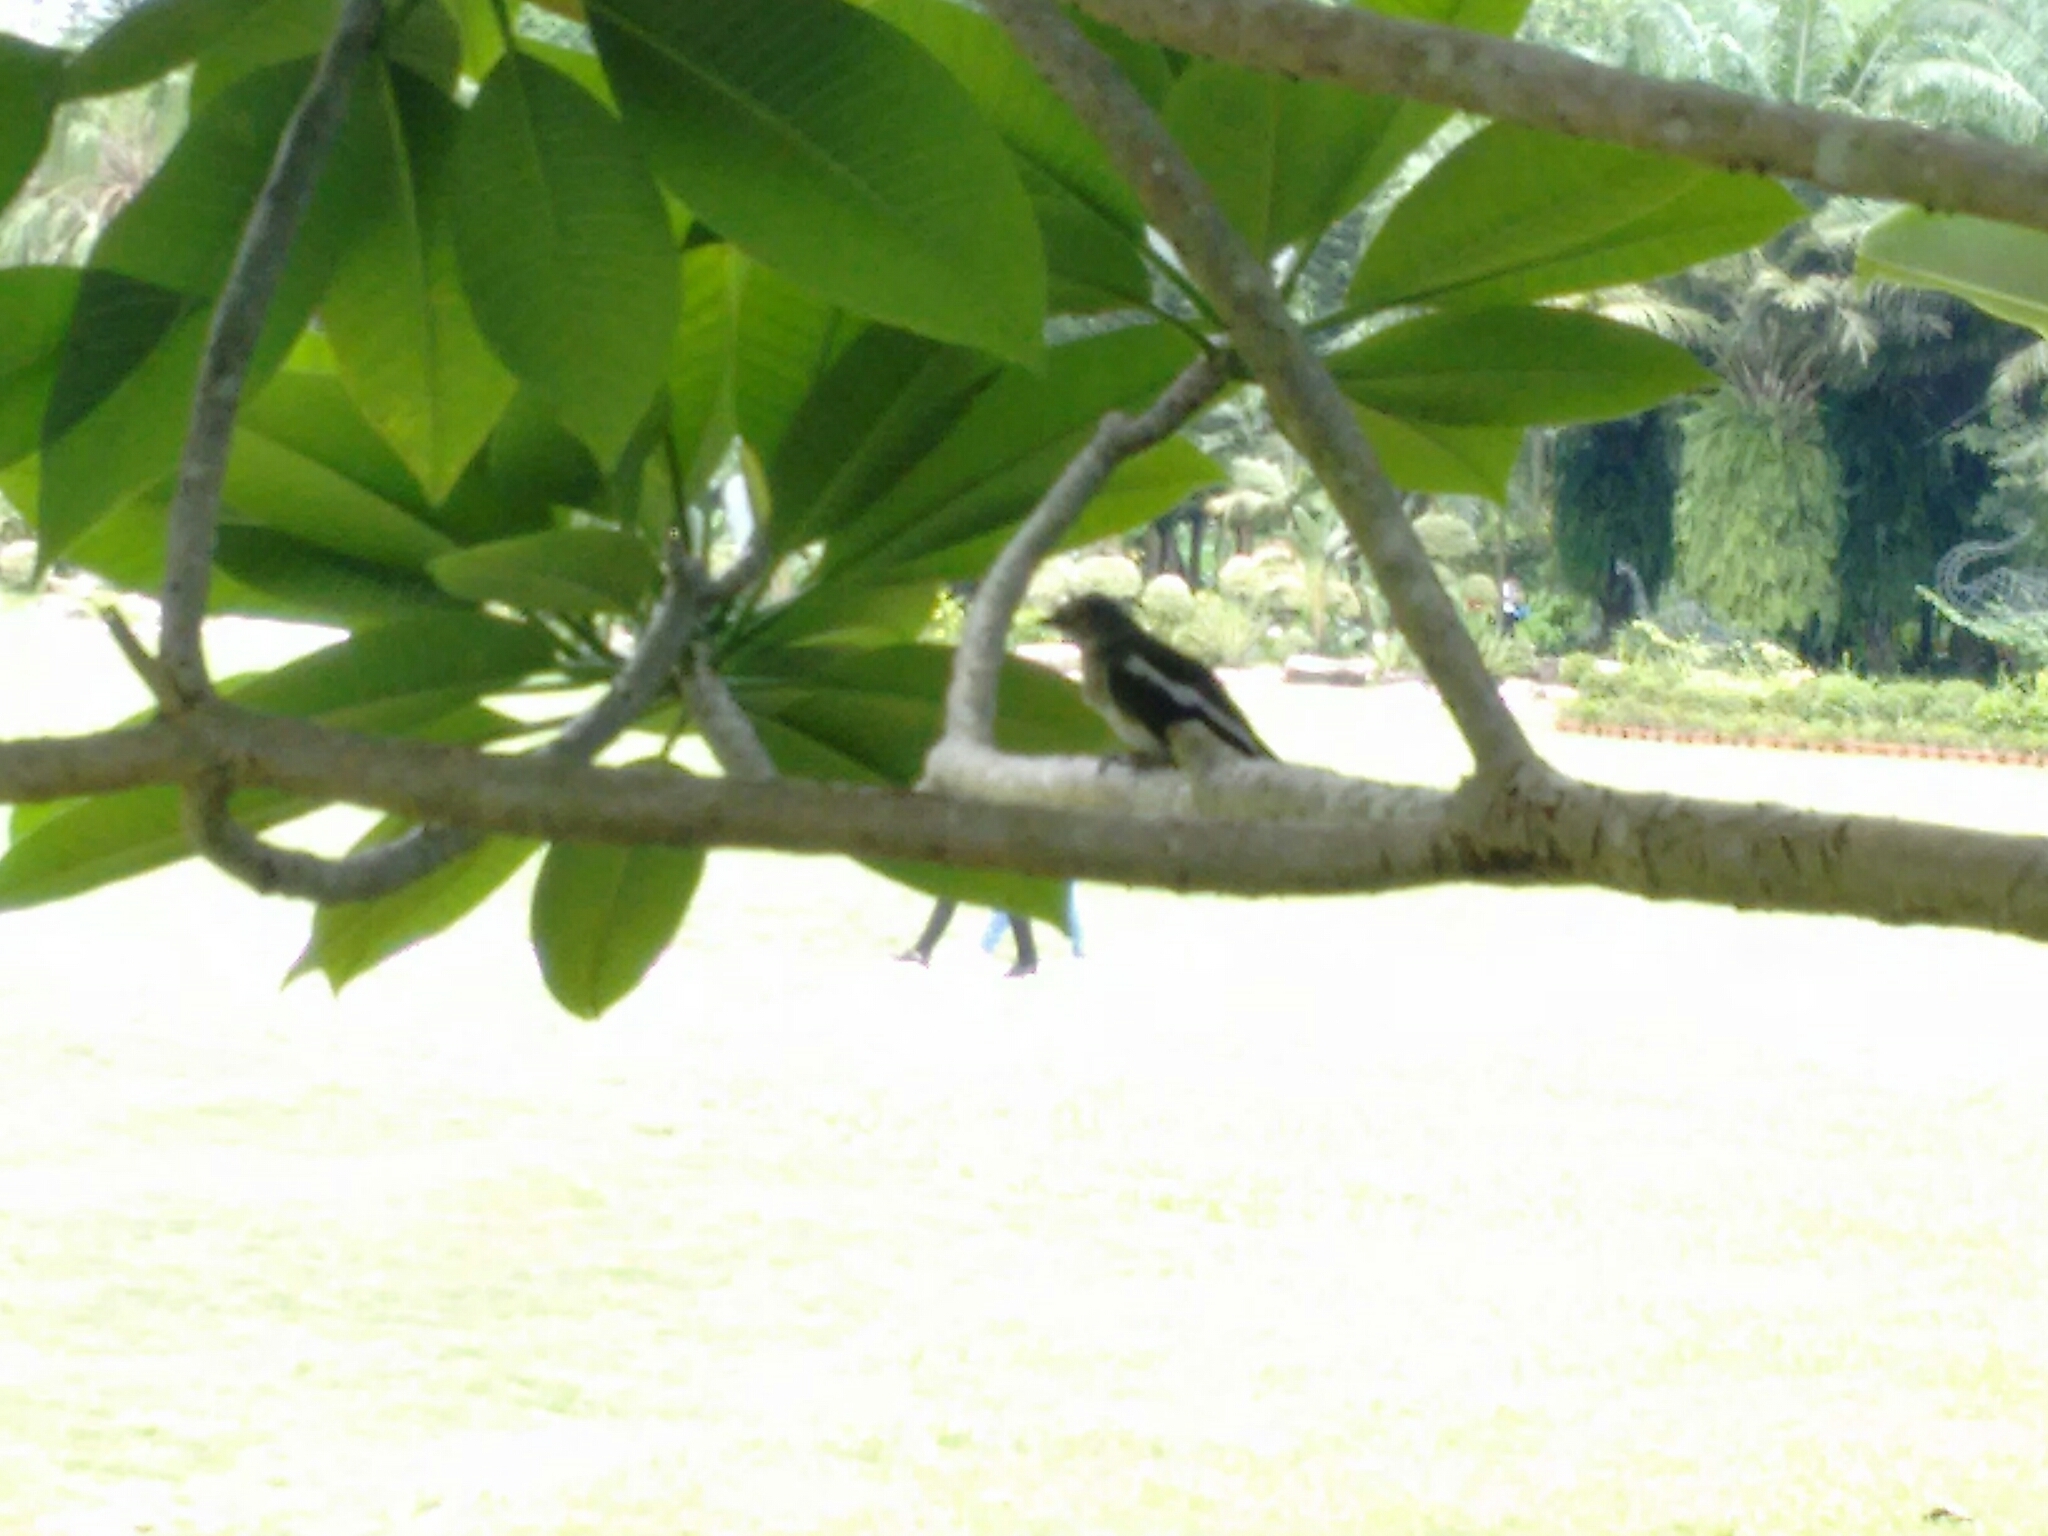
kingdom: Animalia
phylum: Chordata
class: Aves
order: Passeriformes
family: Muscicapidae
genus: Copsychus
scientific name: Copsychus saularis
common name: Oriental magpie-robin
